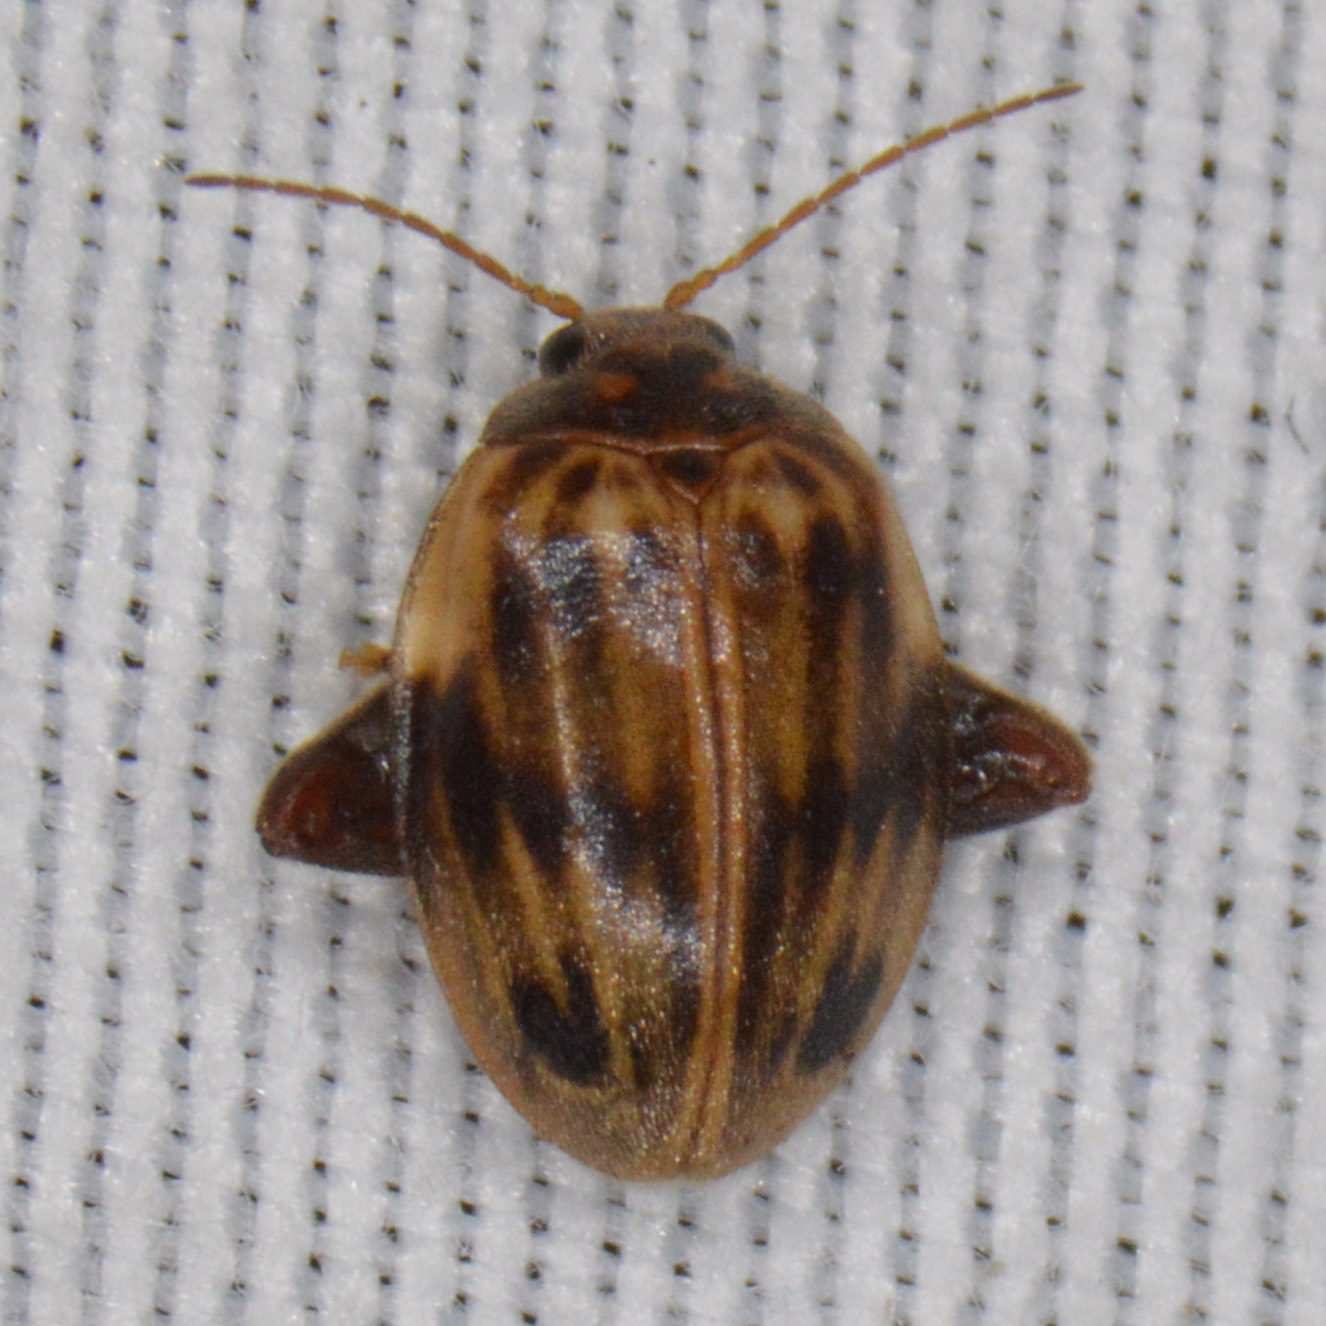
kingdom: Animalia
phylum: Arthropoda
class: Insecta
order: Coleoptera
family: Scirtidae
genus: Ora
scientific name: Ora texana
